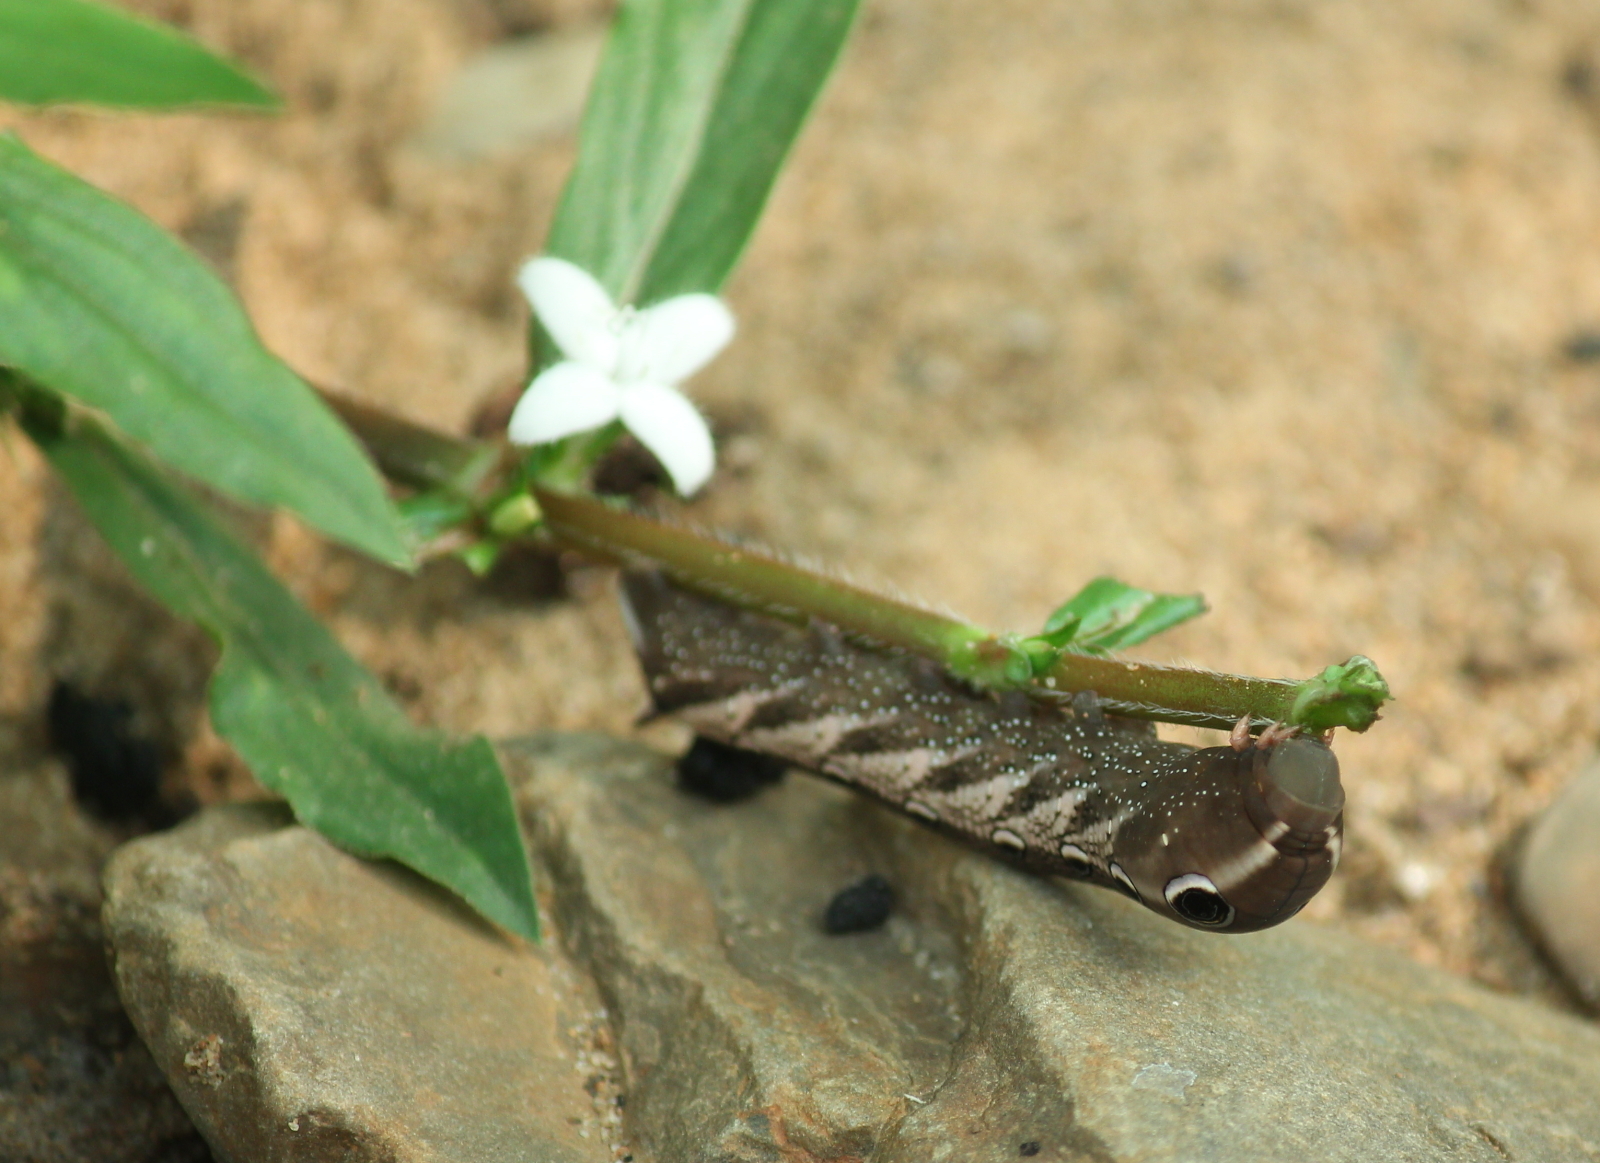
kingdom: Animalia
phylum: Arthropoda
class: Insecta
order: Lepidoptera
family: Sphingidae
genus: Xylophanes
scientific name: Xylophanes tersa
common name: Tersa sphinx
